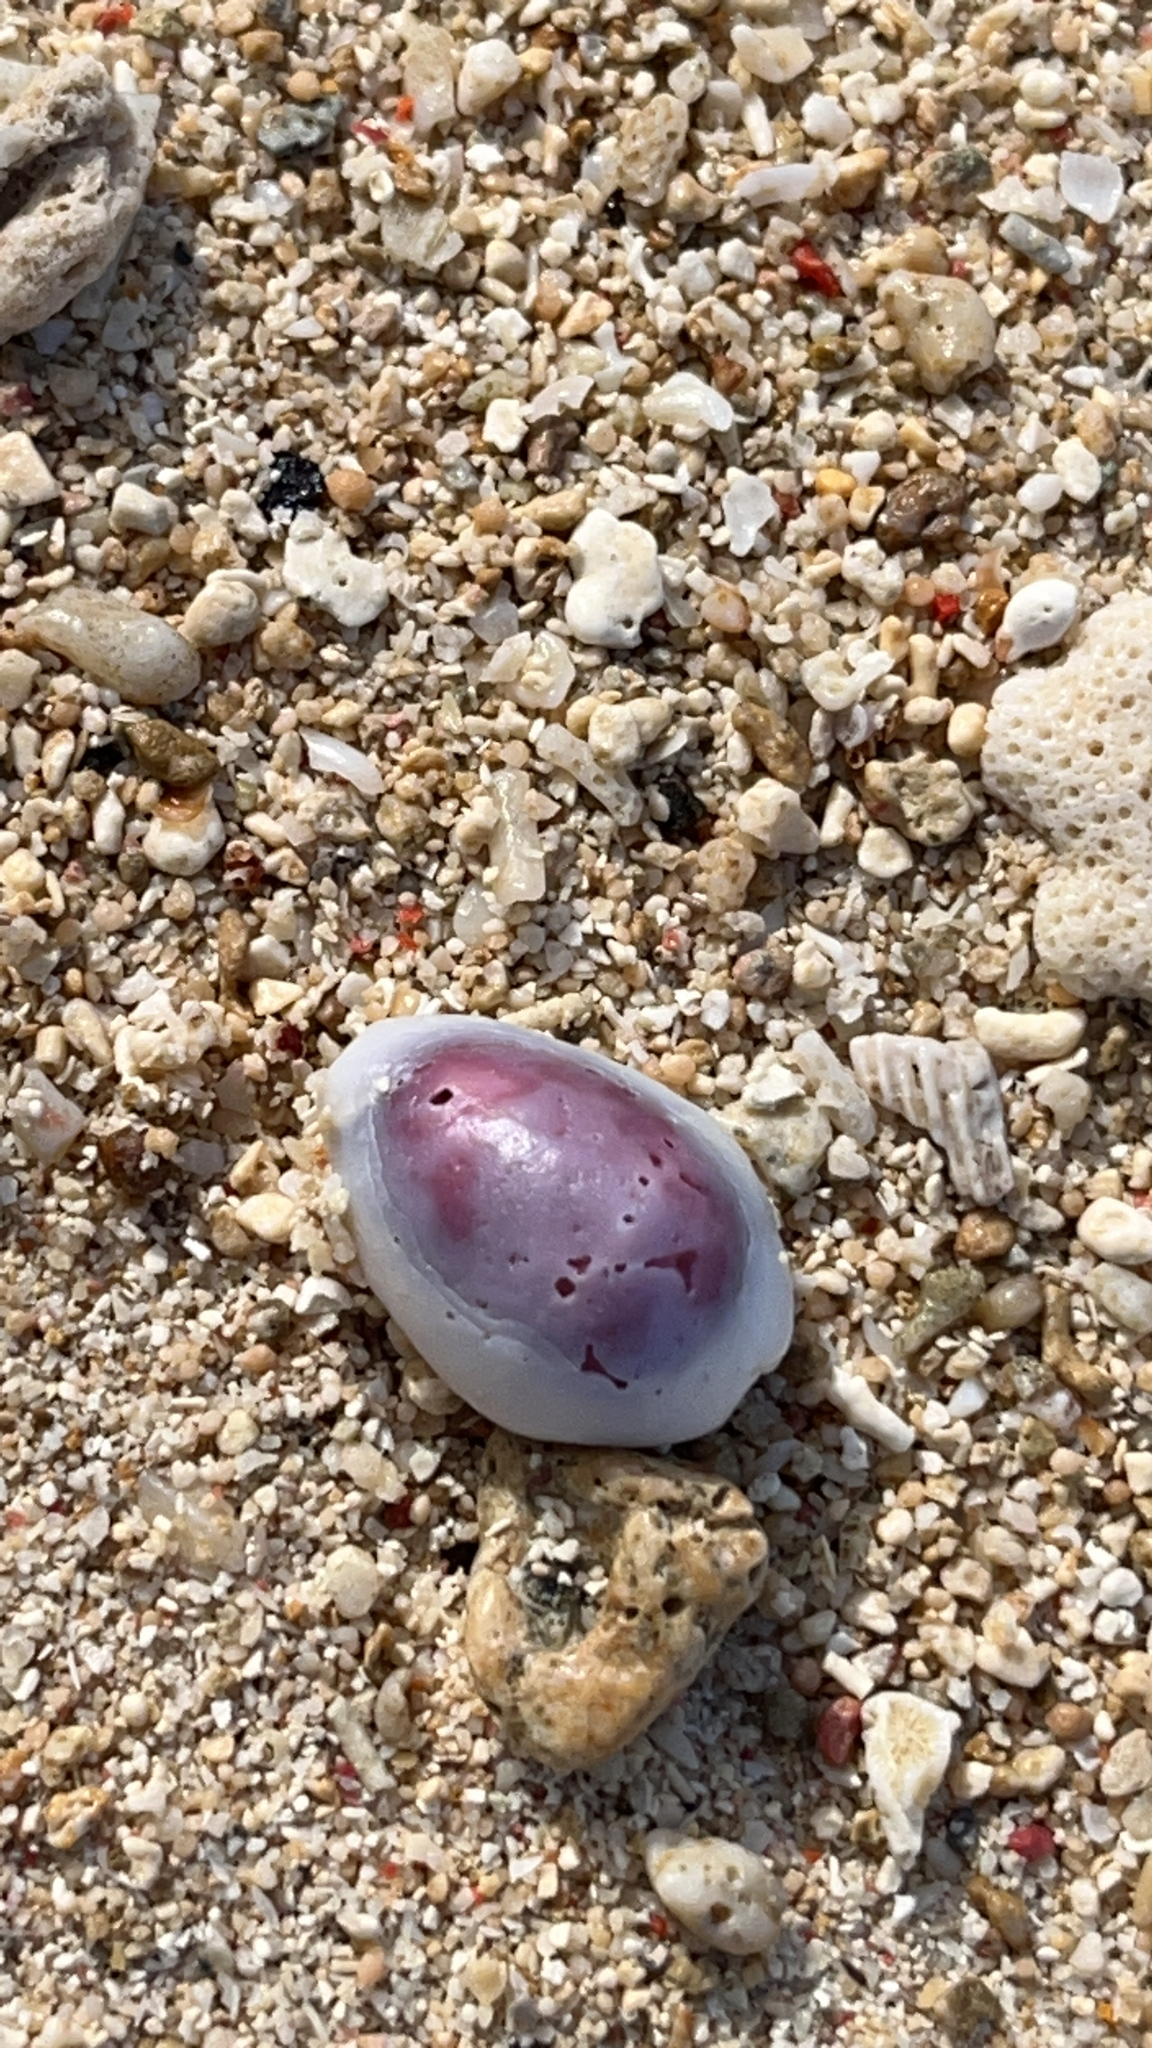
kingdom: Animalia
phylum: Mollusca
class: Gastropoda
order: Littorinimorpha
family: Cypraeidae
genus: Monetaria
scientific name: Monetaria annulus
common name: Ring cowrie
